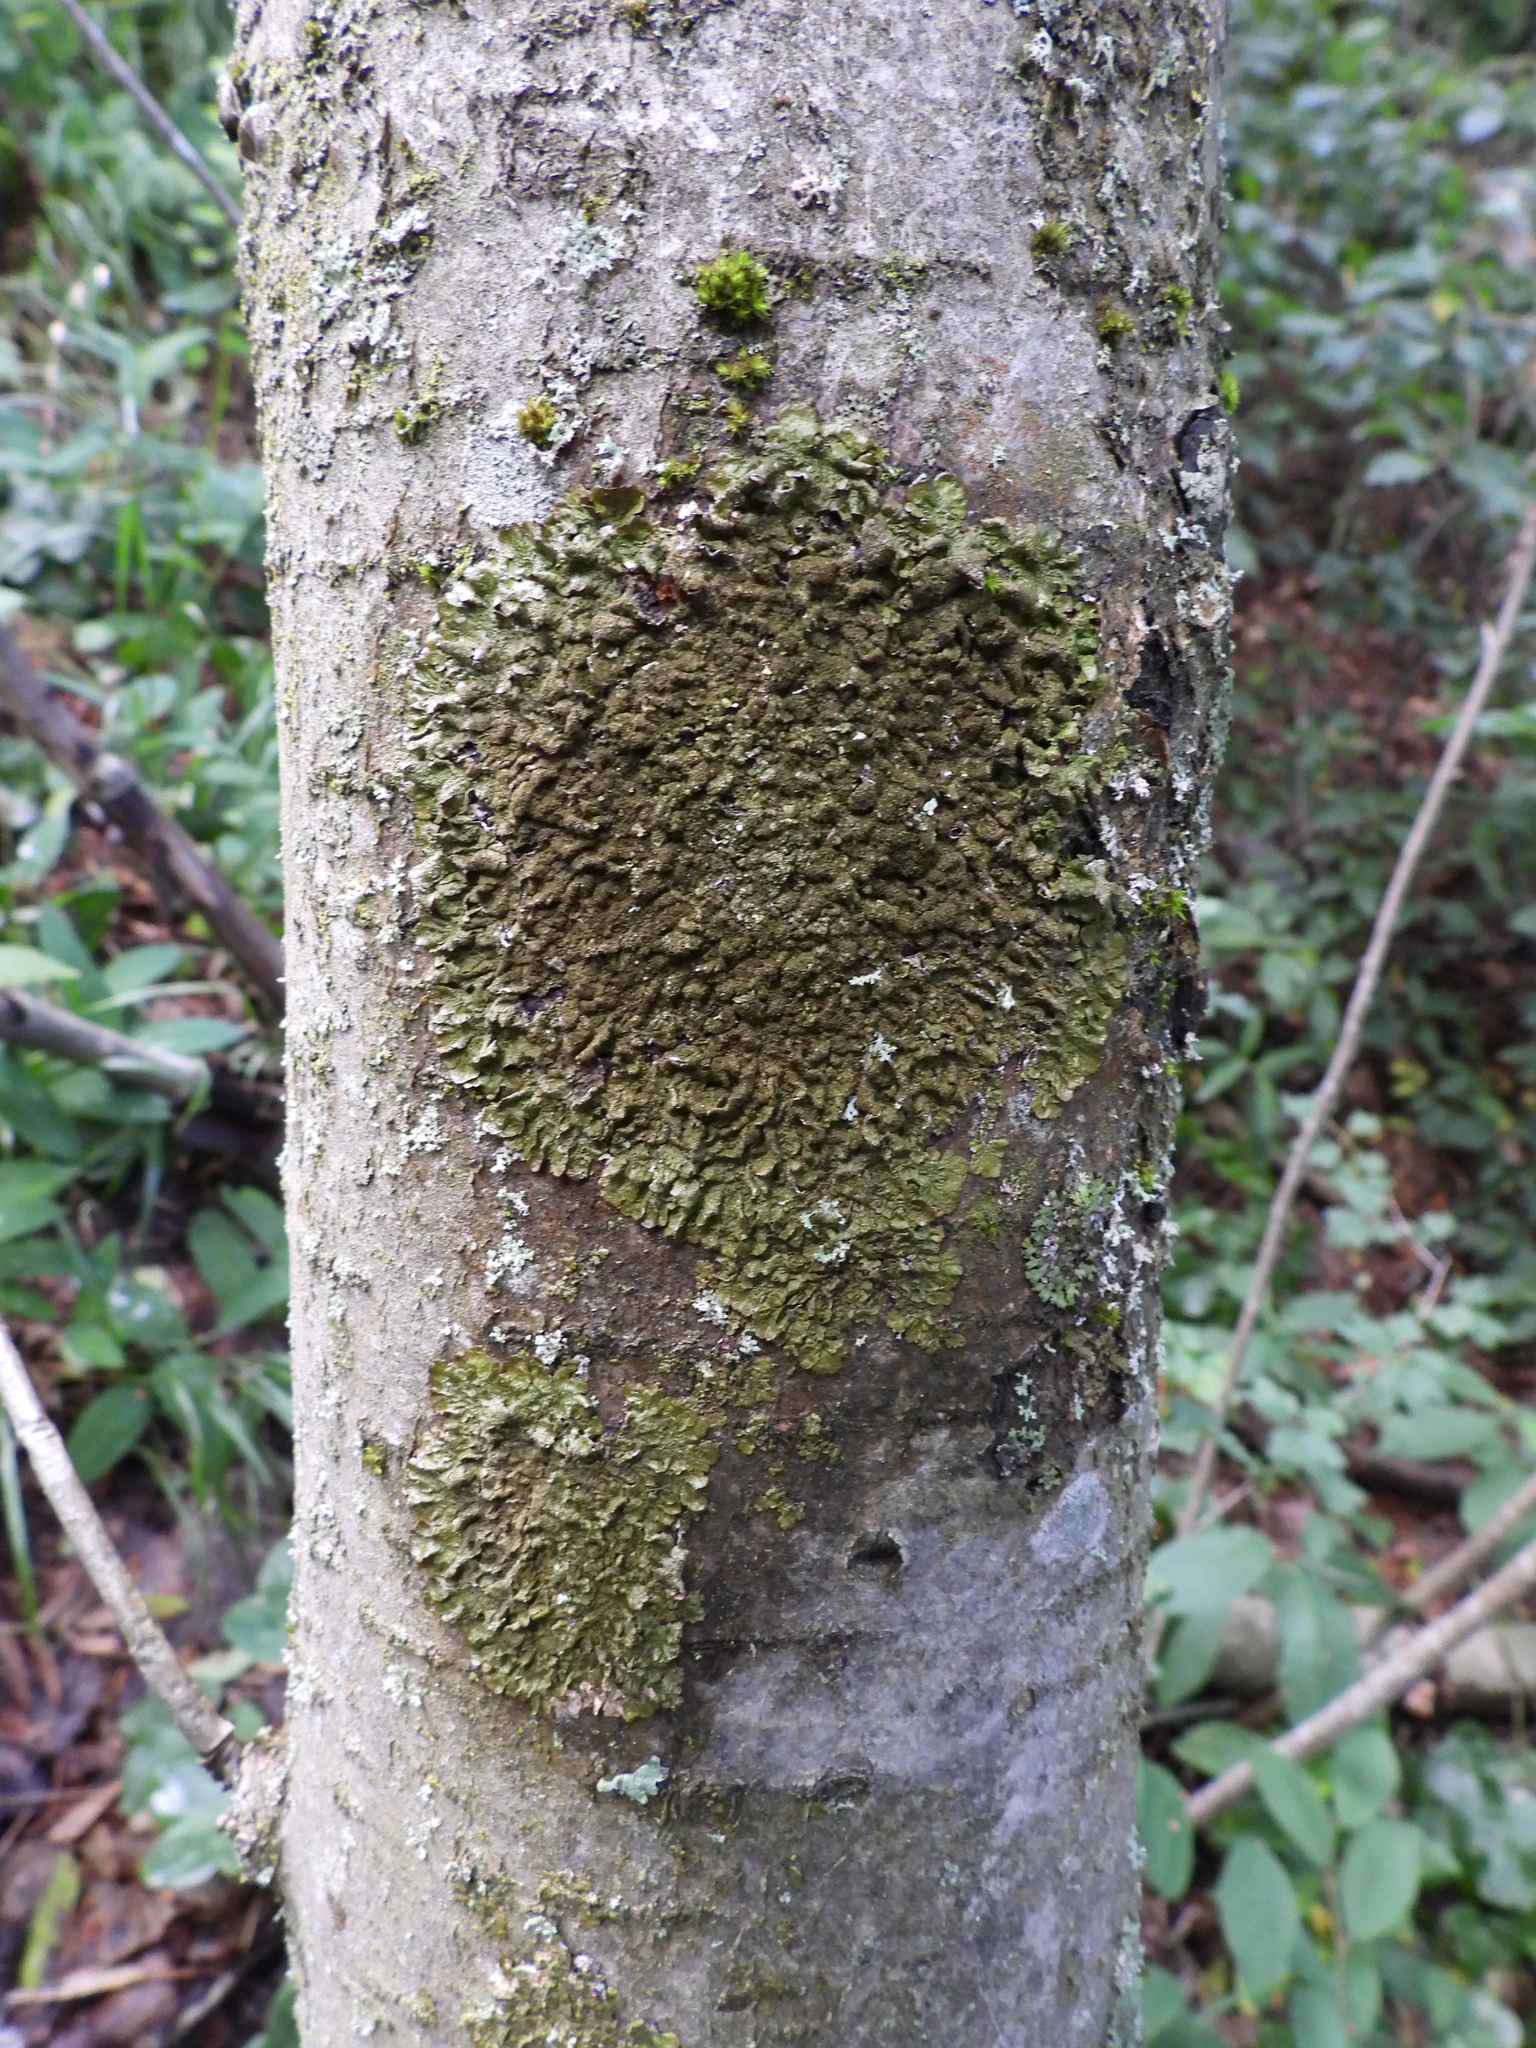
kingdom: Fungi
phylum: Ascomycota
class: Lecanoromycetes
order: Lecanorales
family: Parmeliaceae
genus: Melanelixia
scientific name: Melanelixia glabratula
